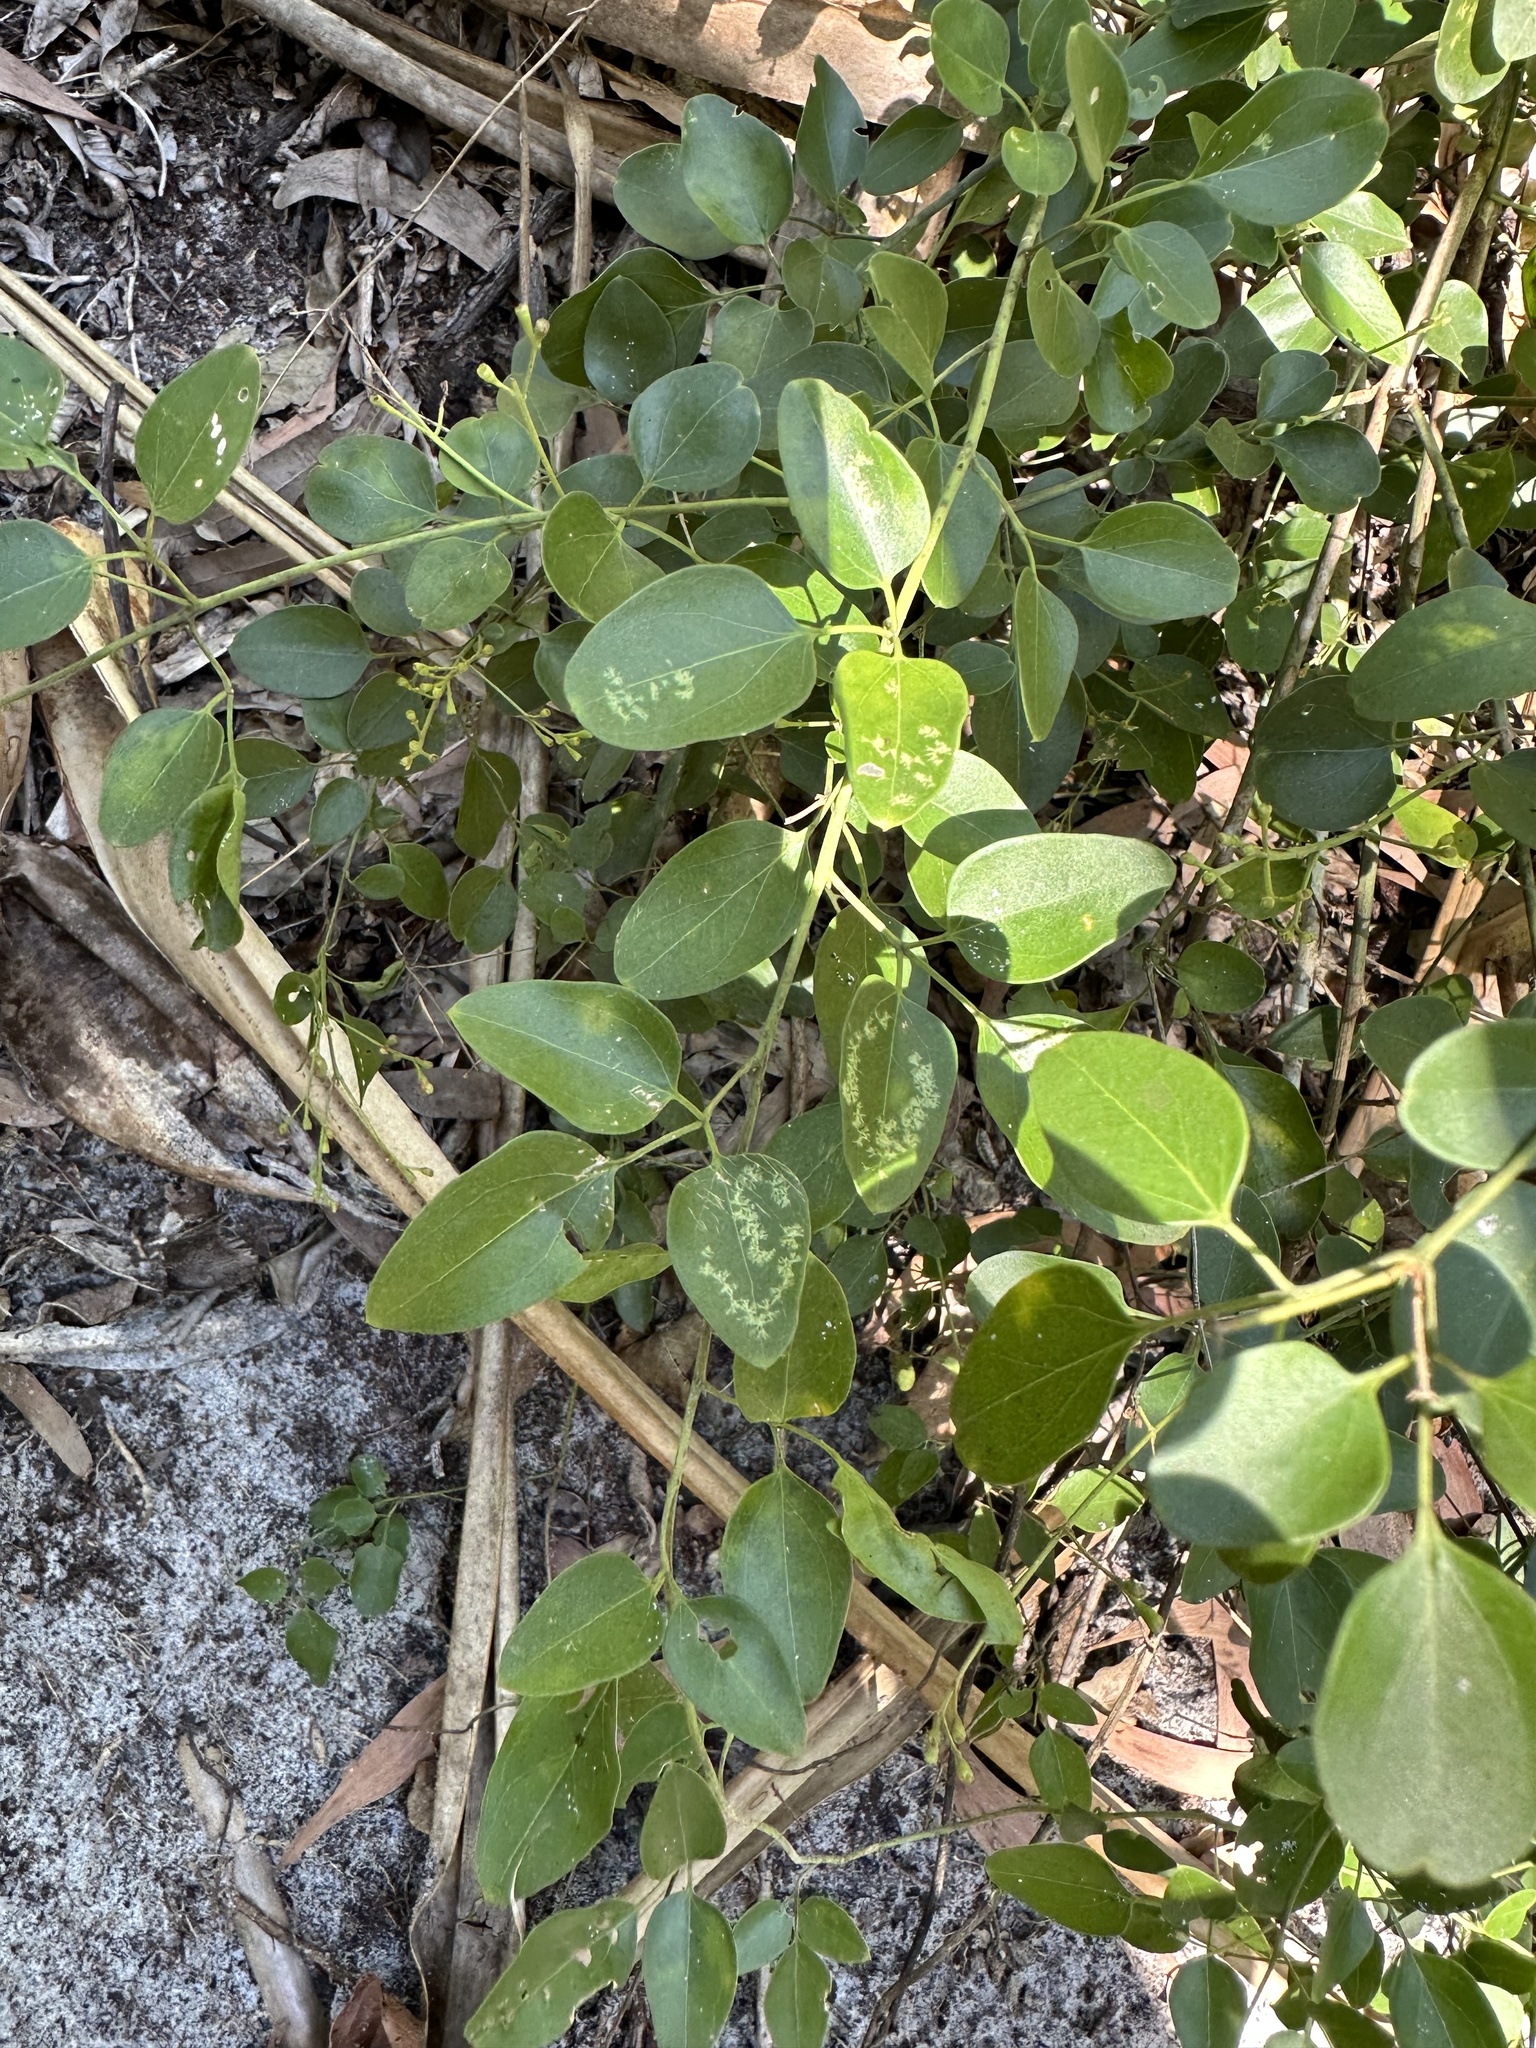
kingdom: Plantae
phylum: Tracheophyta
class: Magnoliopsida
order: Lamiales
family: Oleaceae
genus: Jasminum
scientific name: Jasminum didymum
